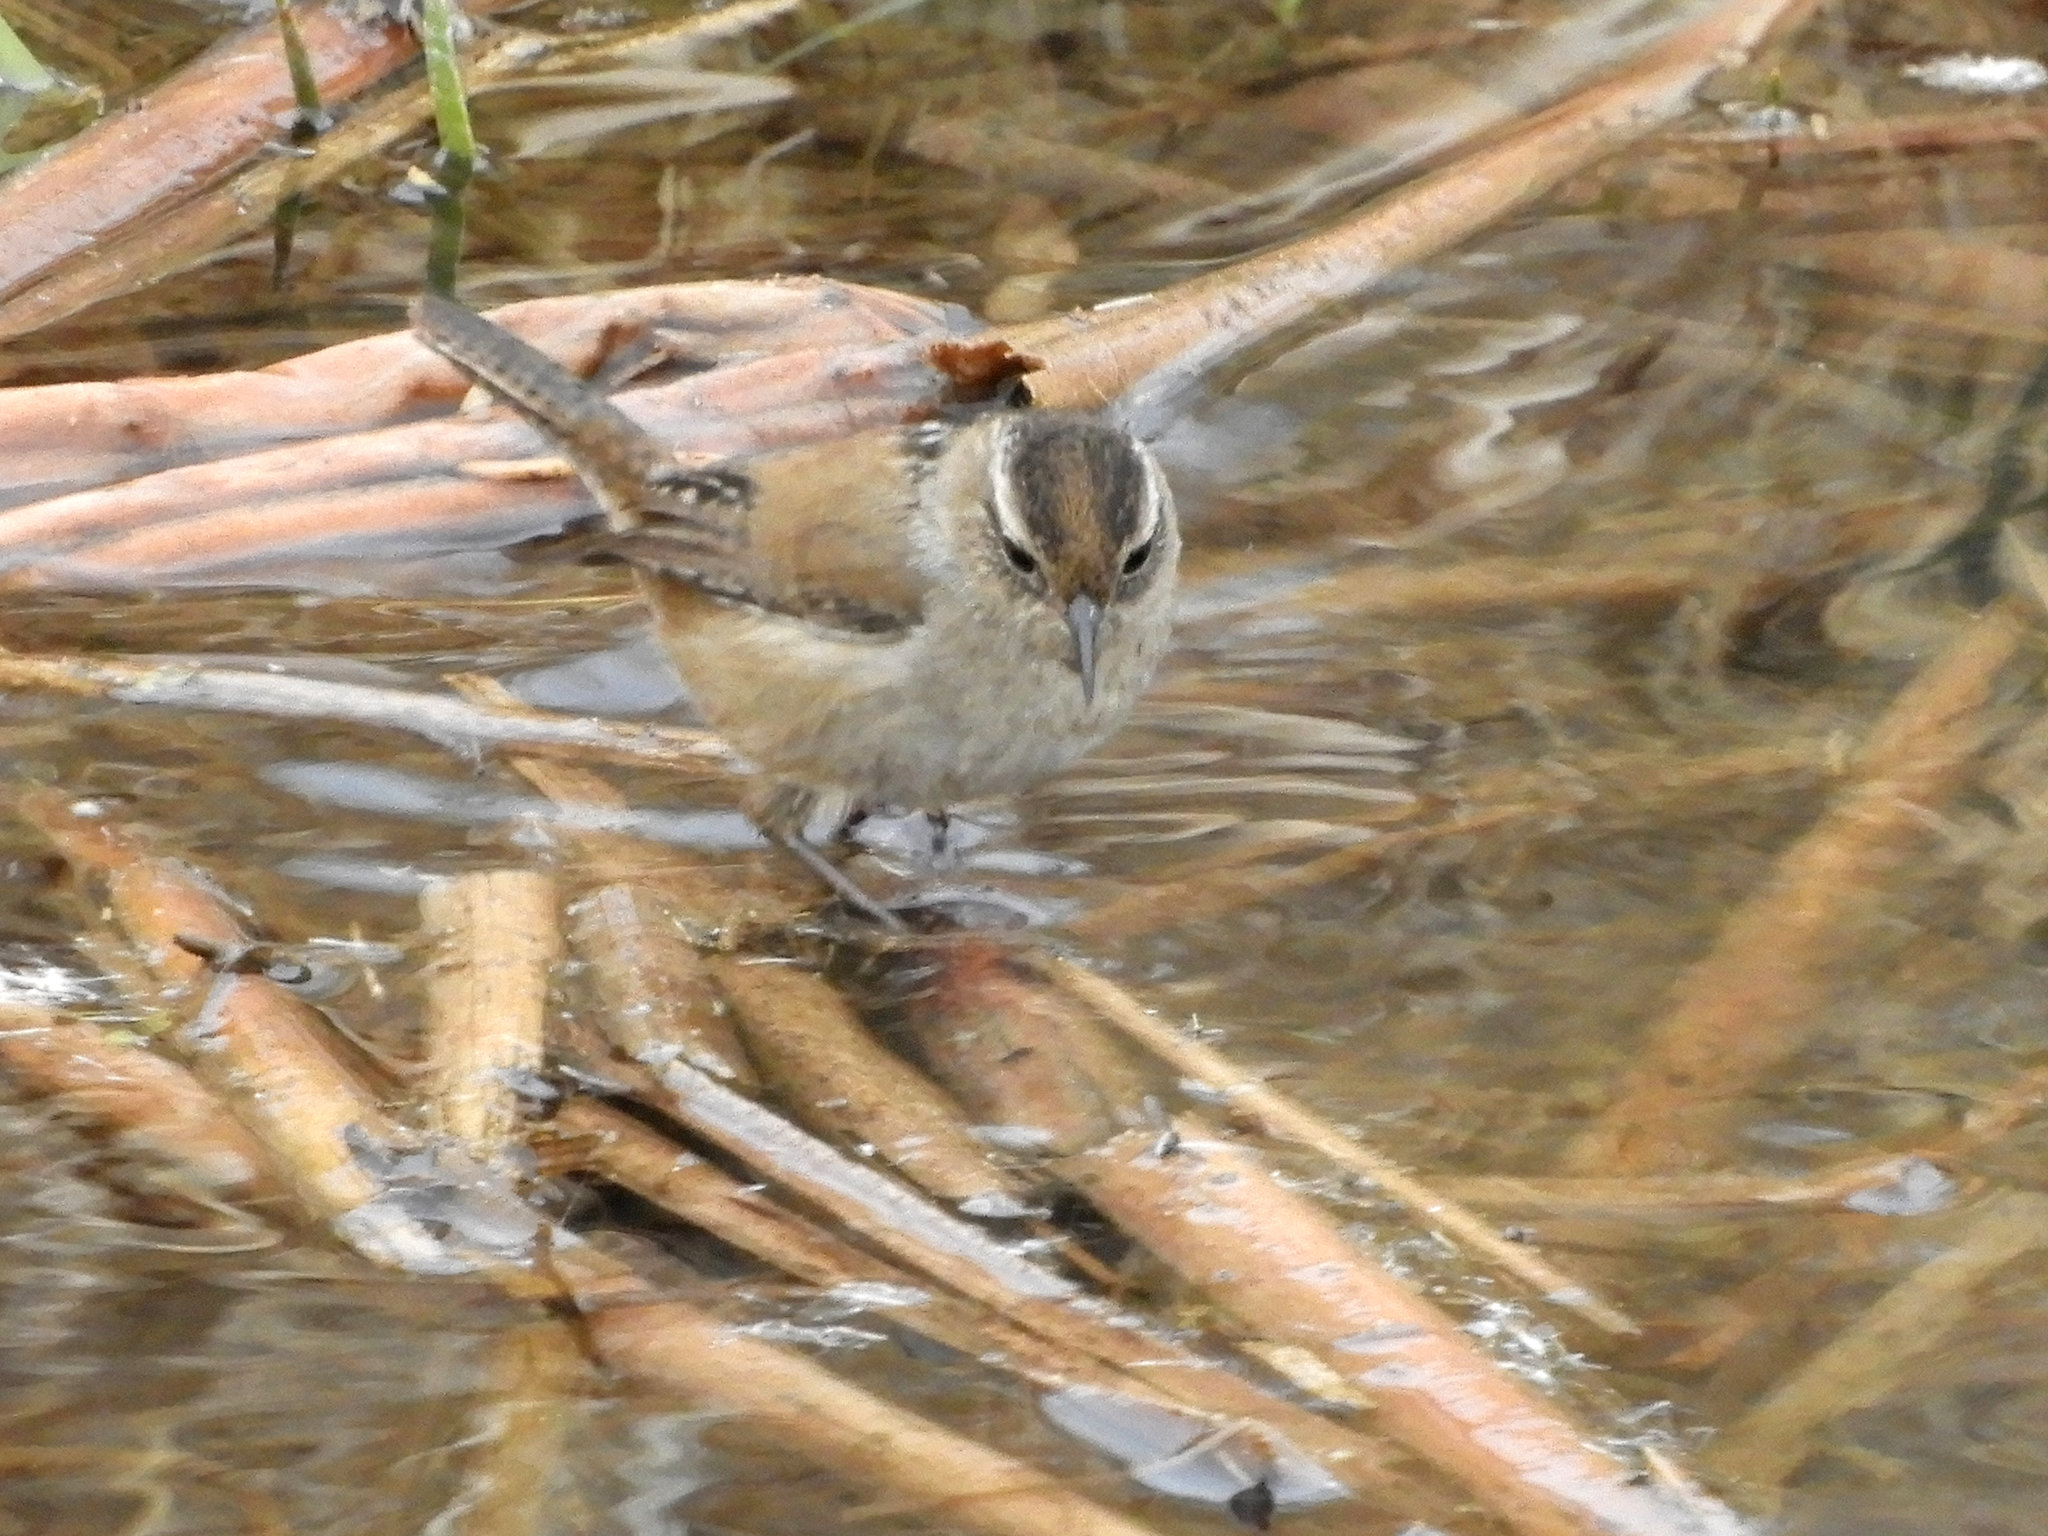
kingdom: Animalia
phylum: Chordata
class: Aves
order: Passeriformes
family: Troglodytidae
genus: Cistothorus
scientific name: Cistothorus palustris
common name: Marsh wren
